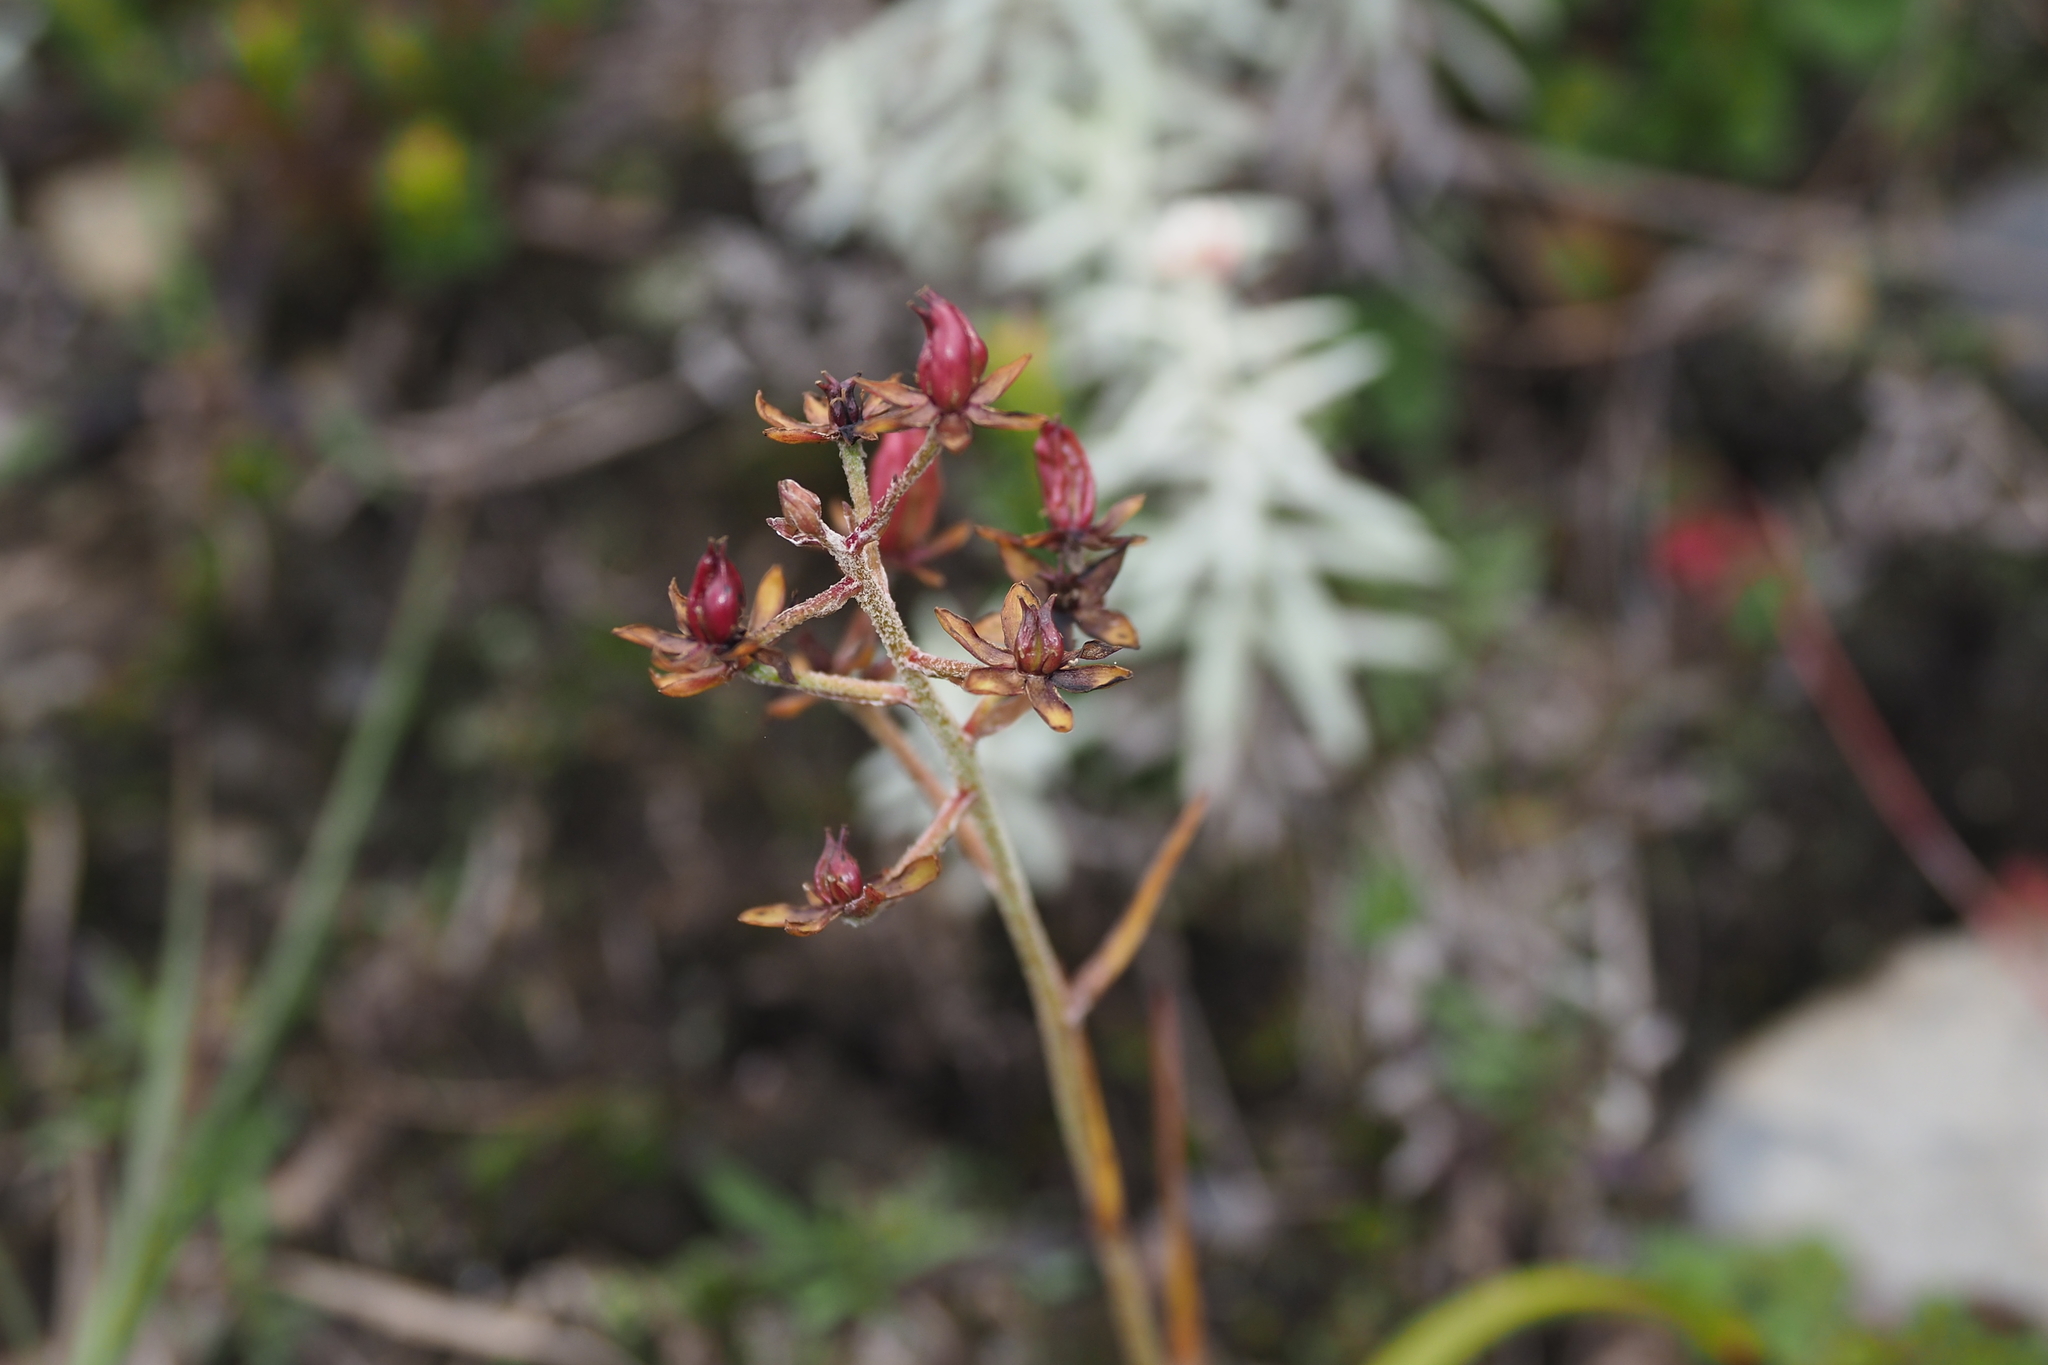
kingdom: Plantae
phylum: Tracheophyta
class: Liliopsida
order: Liliales
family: Melanthiaceae
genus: Veratrum
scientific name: Veratrum formosanum
